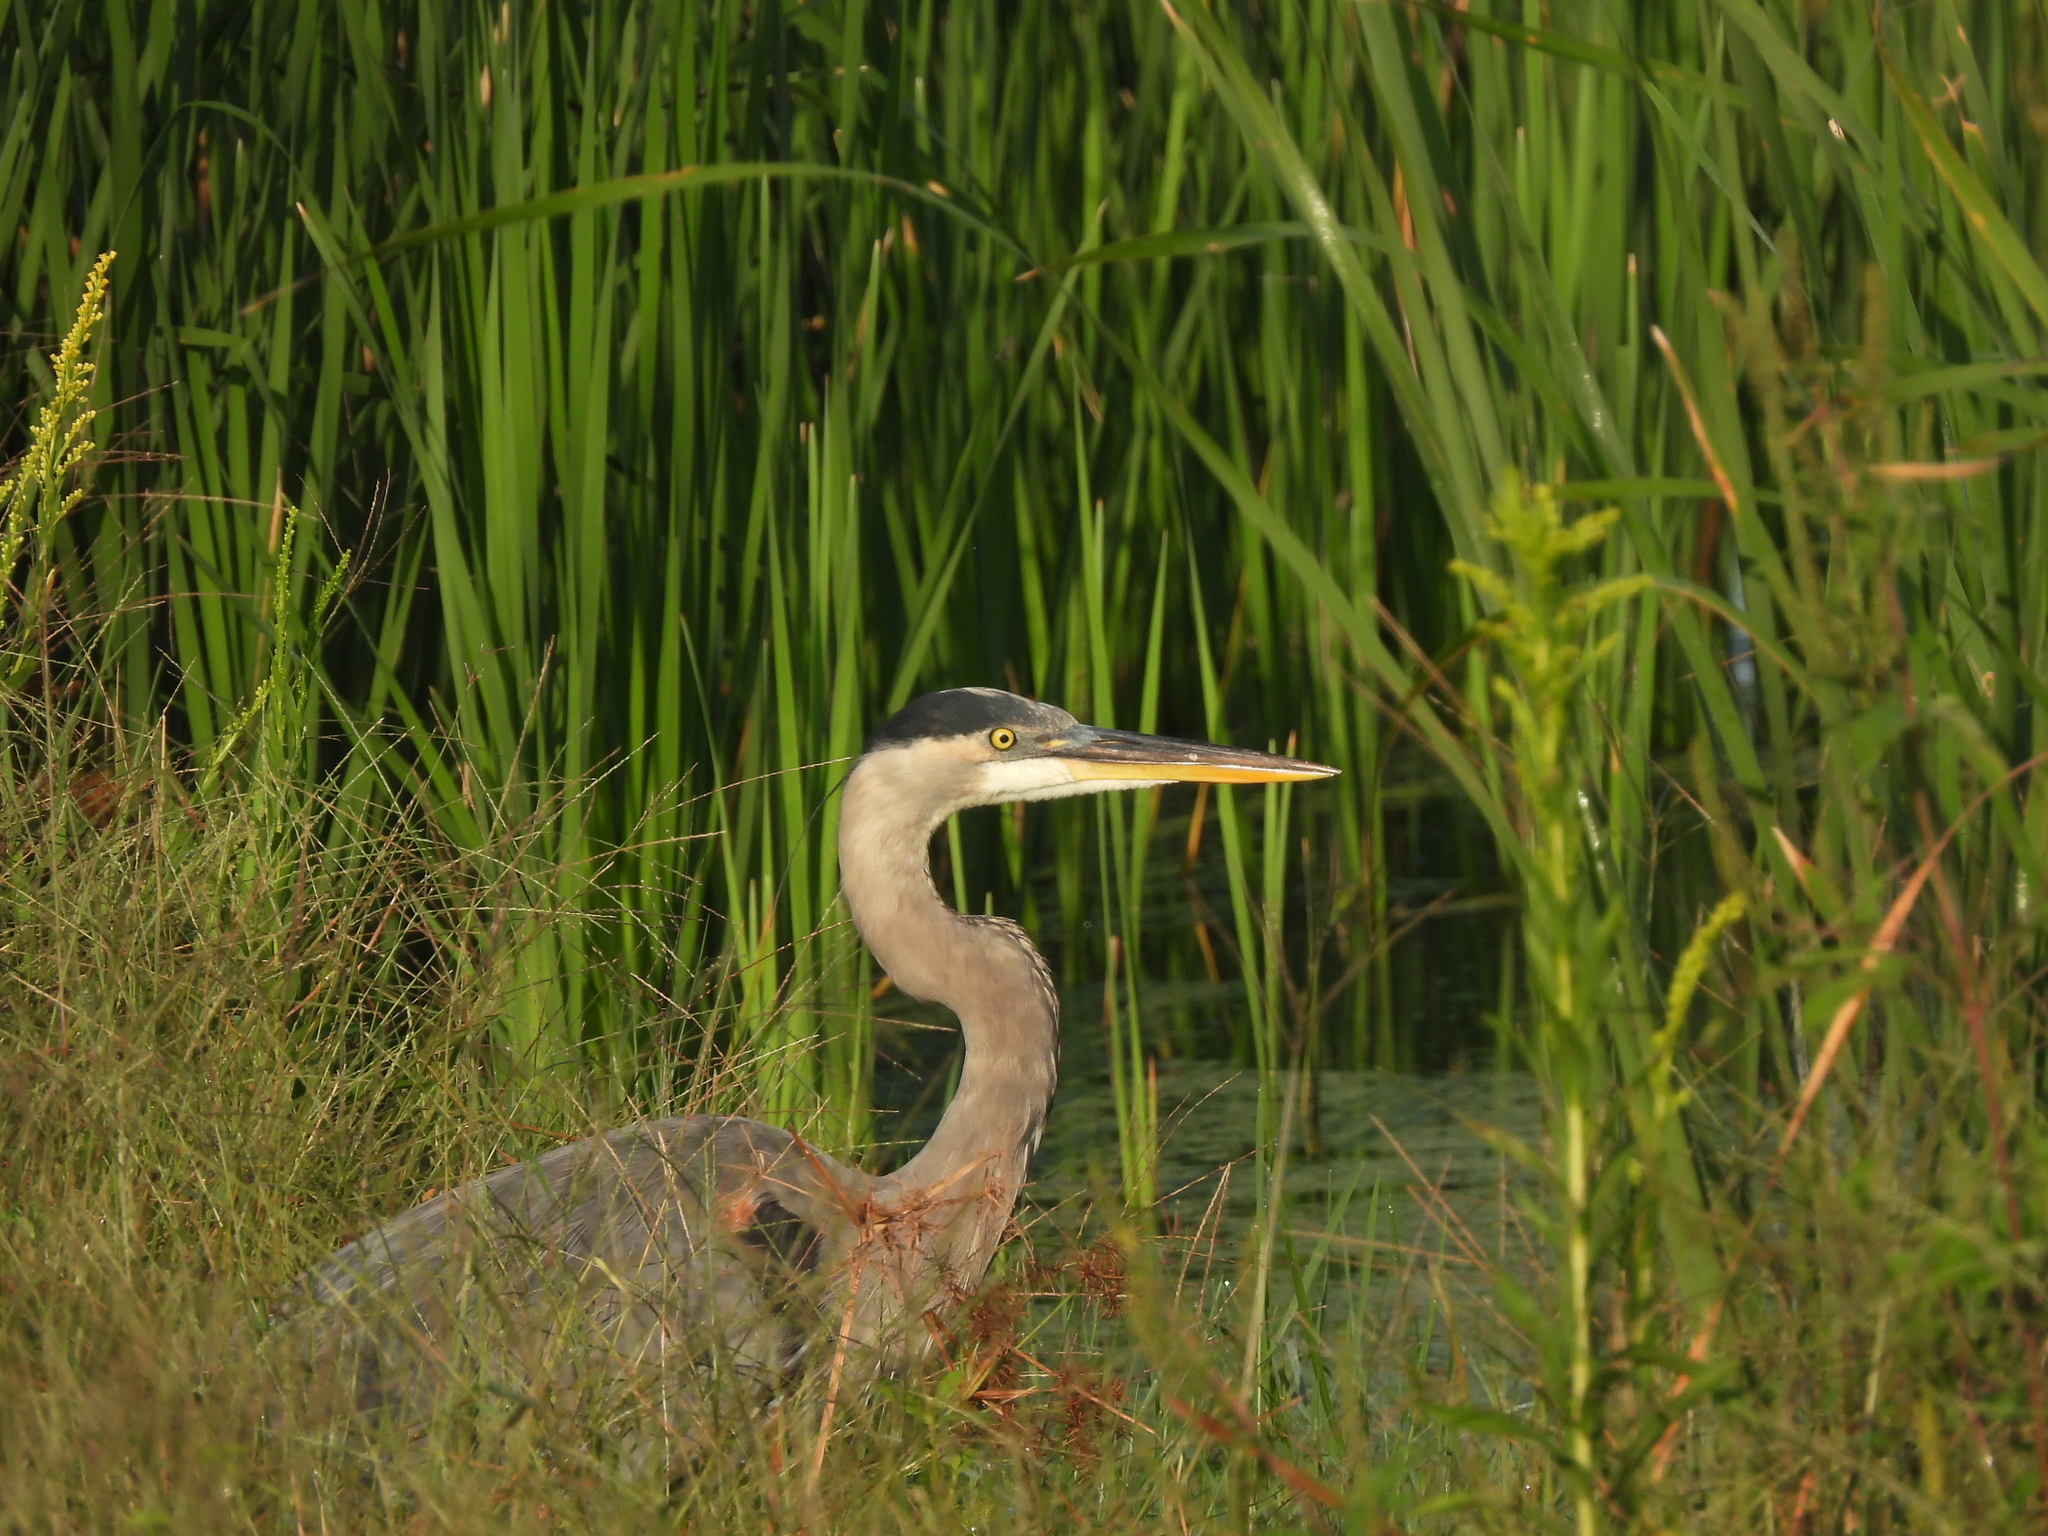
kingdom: Animalia
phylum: Chordata
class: Aves
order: Pelecaniformes
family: Ardeidae
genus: Ardea
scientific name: Ardea herodias
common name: Great blue heron
